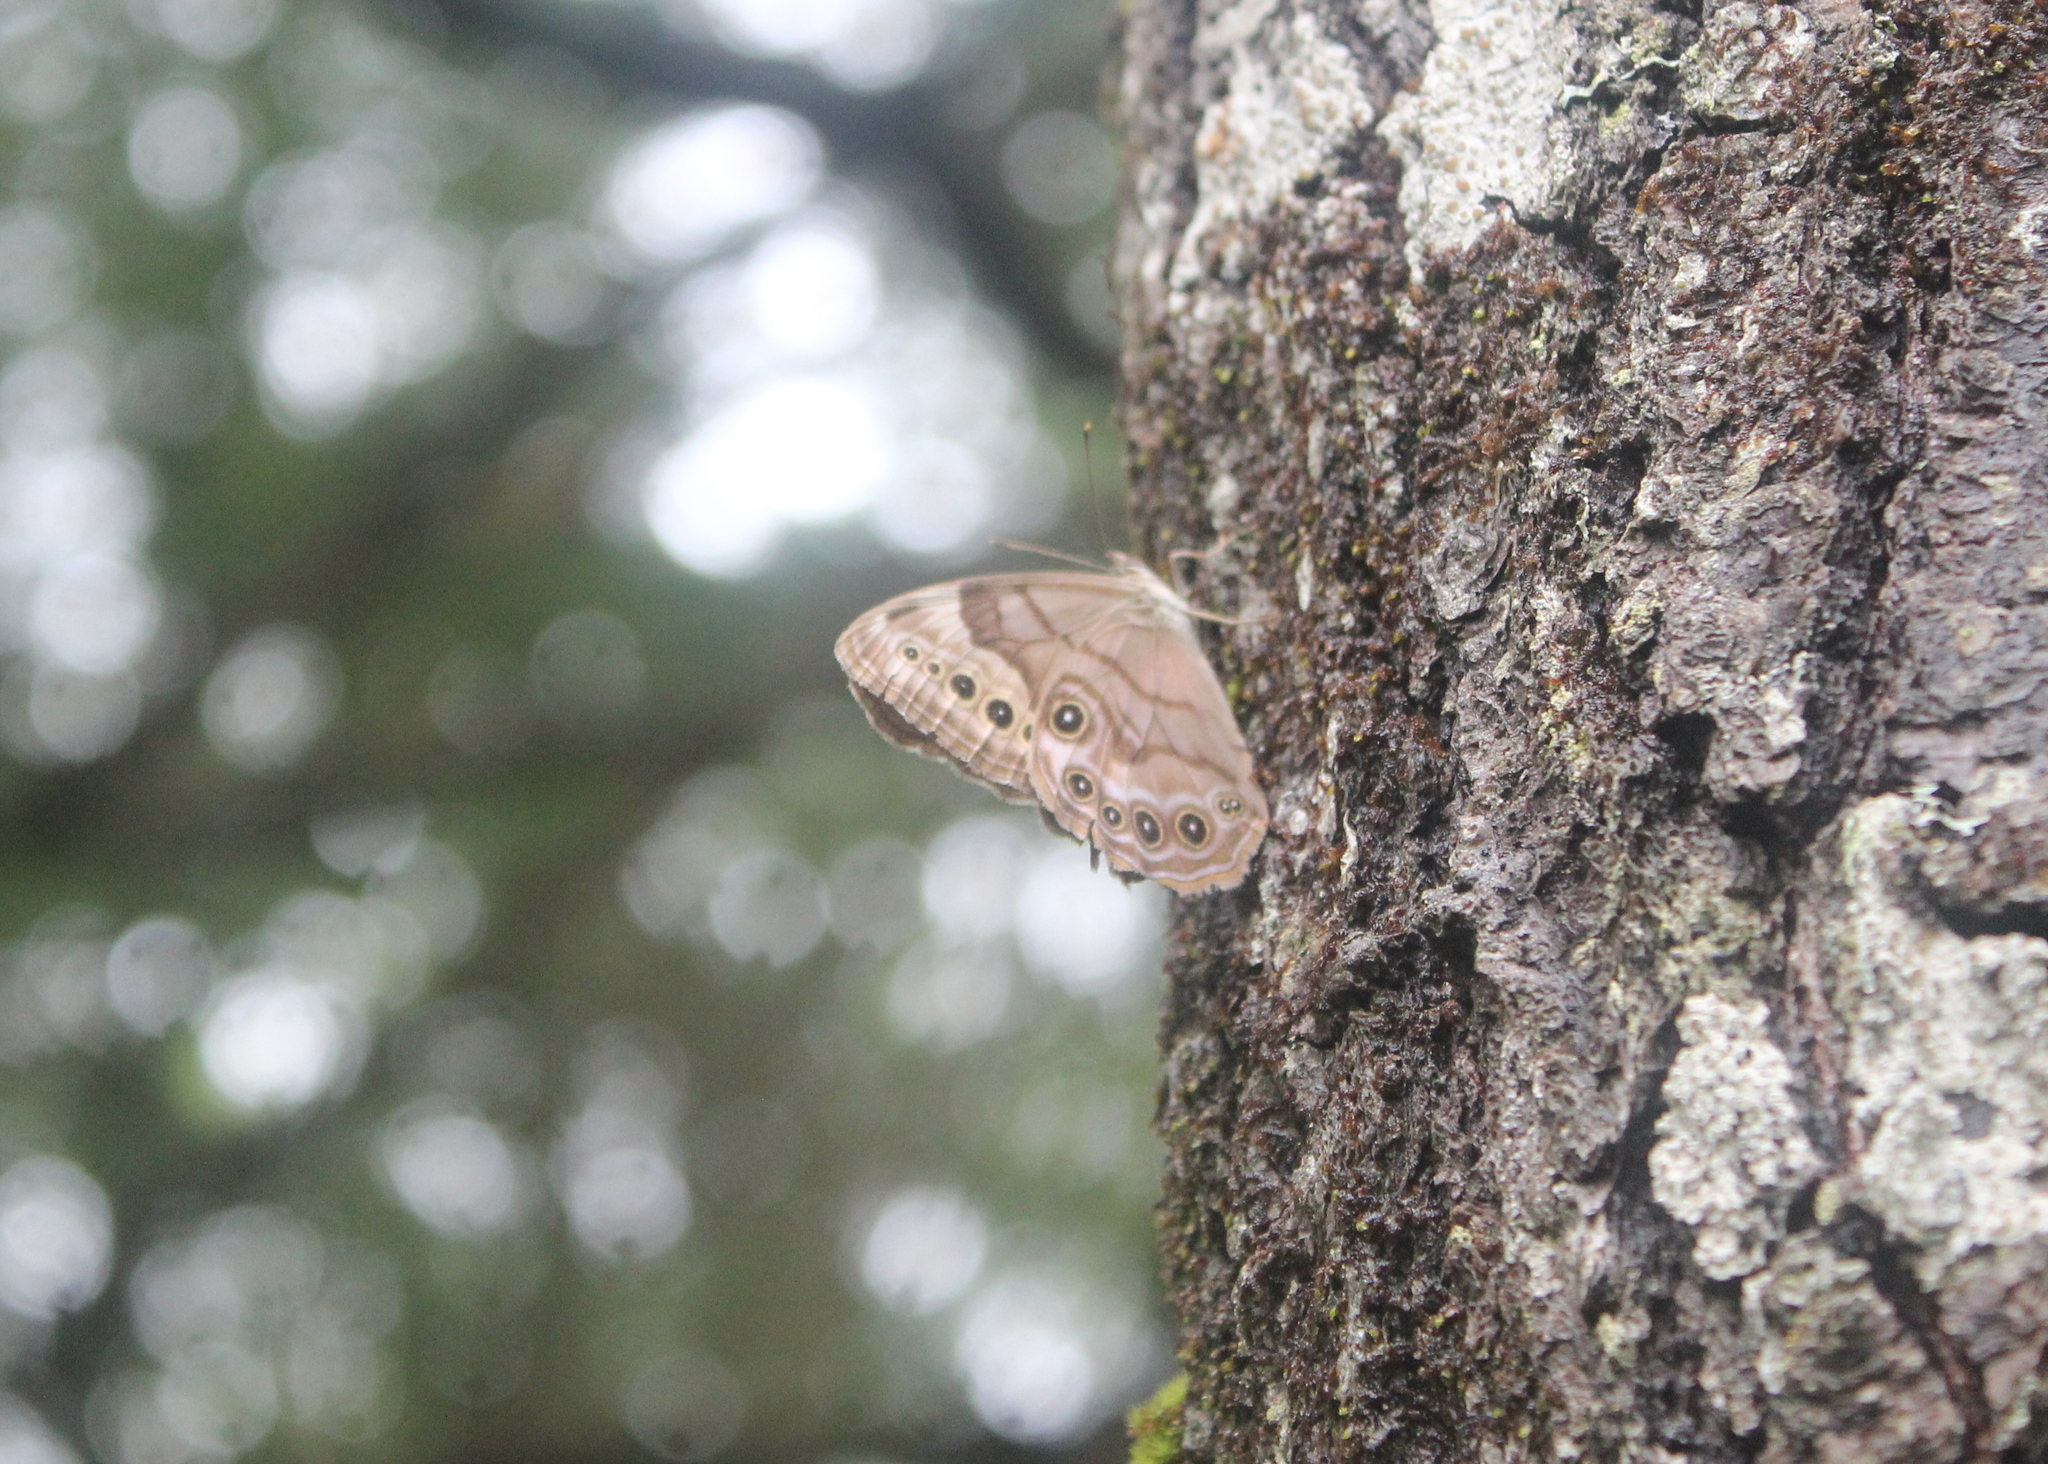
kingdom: Animalia
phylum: Arthropoda
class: Insecta
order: Lepidoptera
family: Nymphalidae
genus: Lethe
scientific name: Lethe anthedon
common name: Northern pearly-eye
